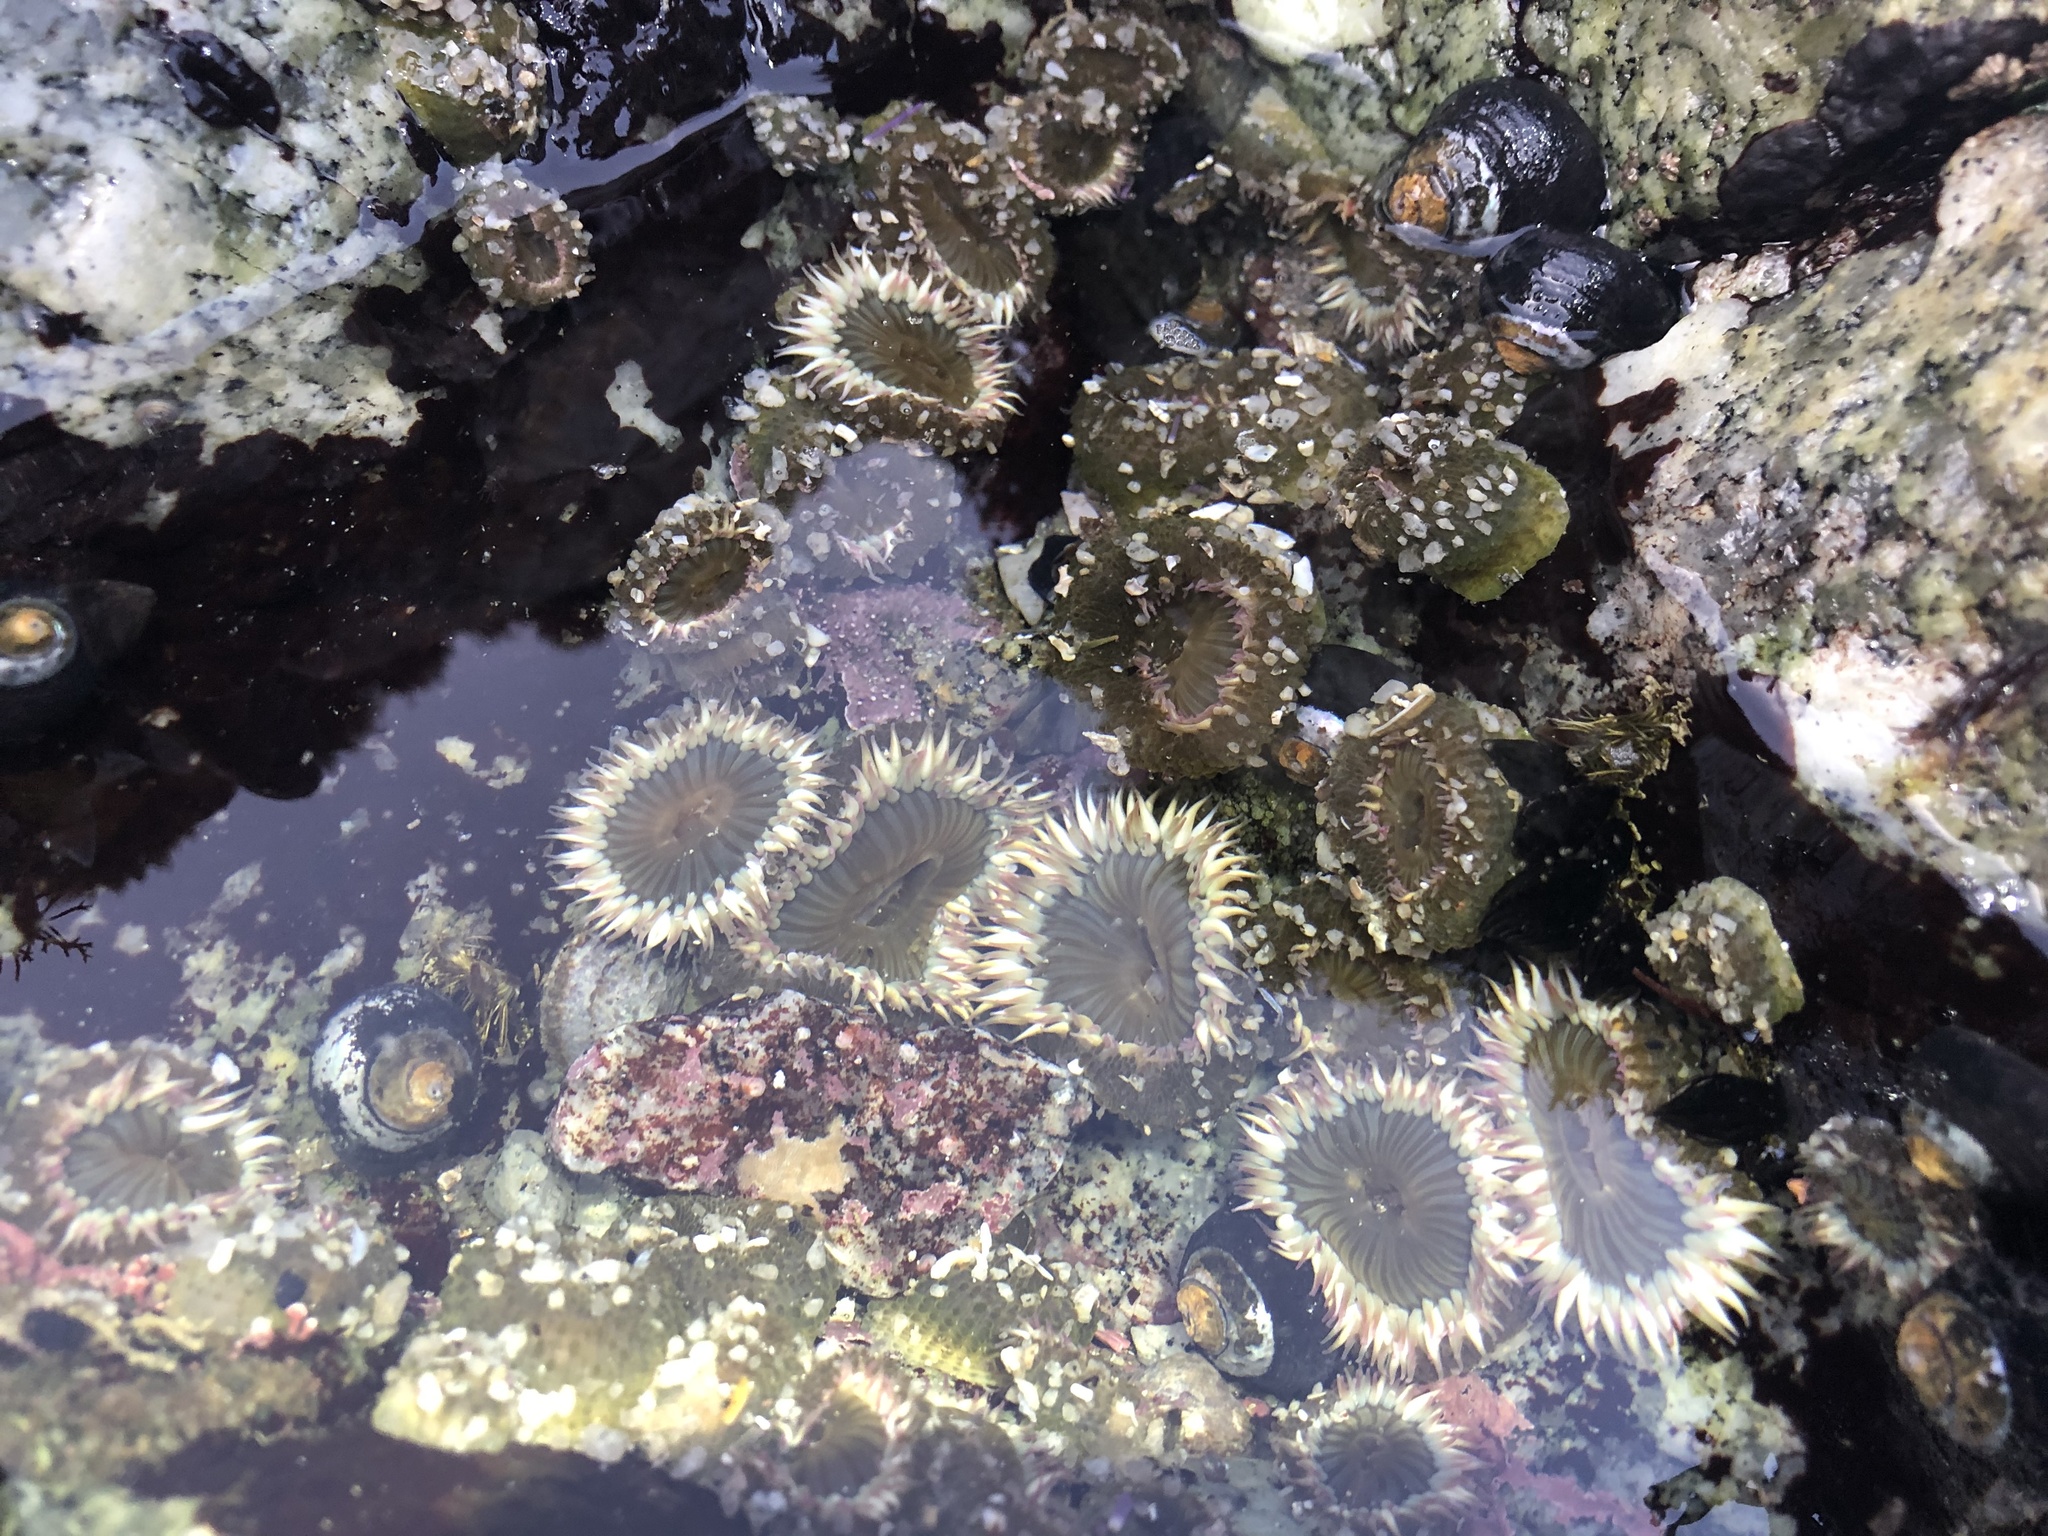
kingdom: Animalia
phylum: Cnidaria
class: Anthozoa
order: Actiniaria
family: Actiniidae
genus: Anthopleura
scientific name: Anthopleura elegantissima
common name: Clonal anemone
